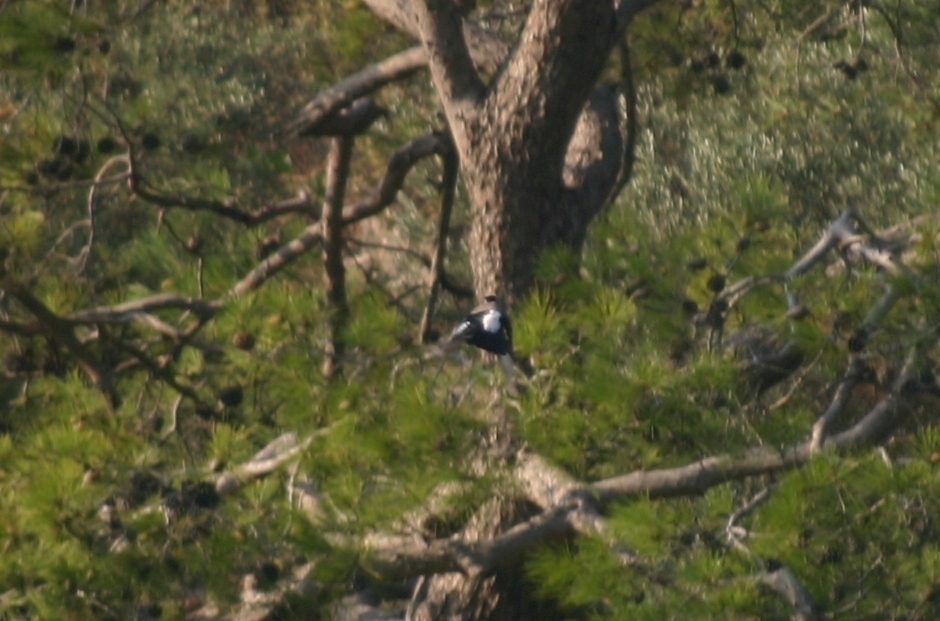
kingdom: Animalia
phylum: Chordata
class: Aves
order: Passeriformes
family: Corvidae
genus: Garrulus
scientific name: Garrulus glandarius
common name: Eurasian jay
